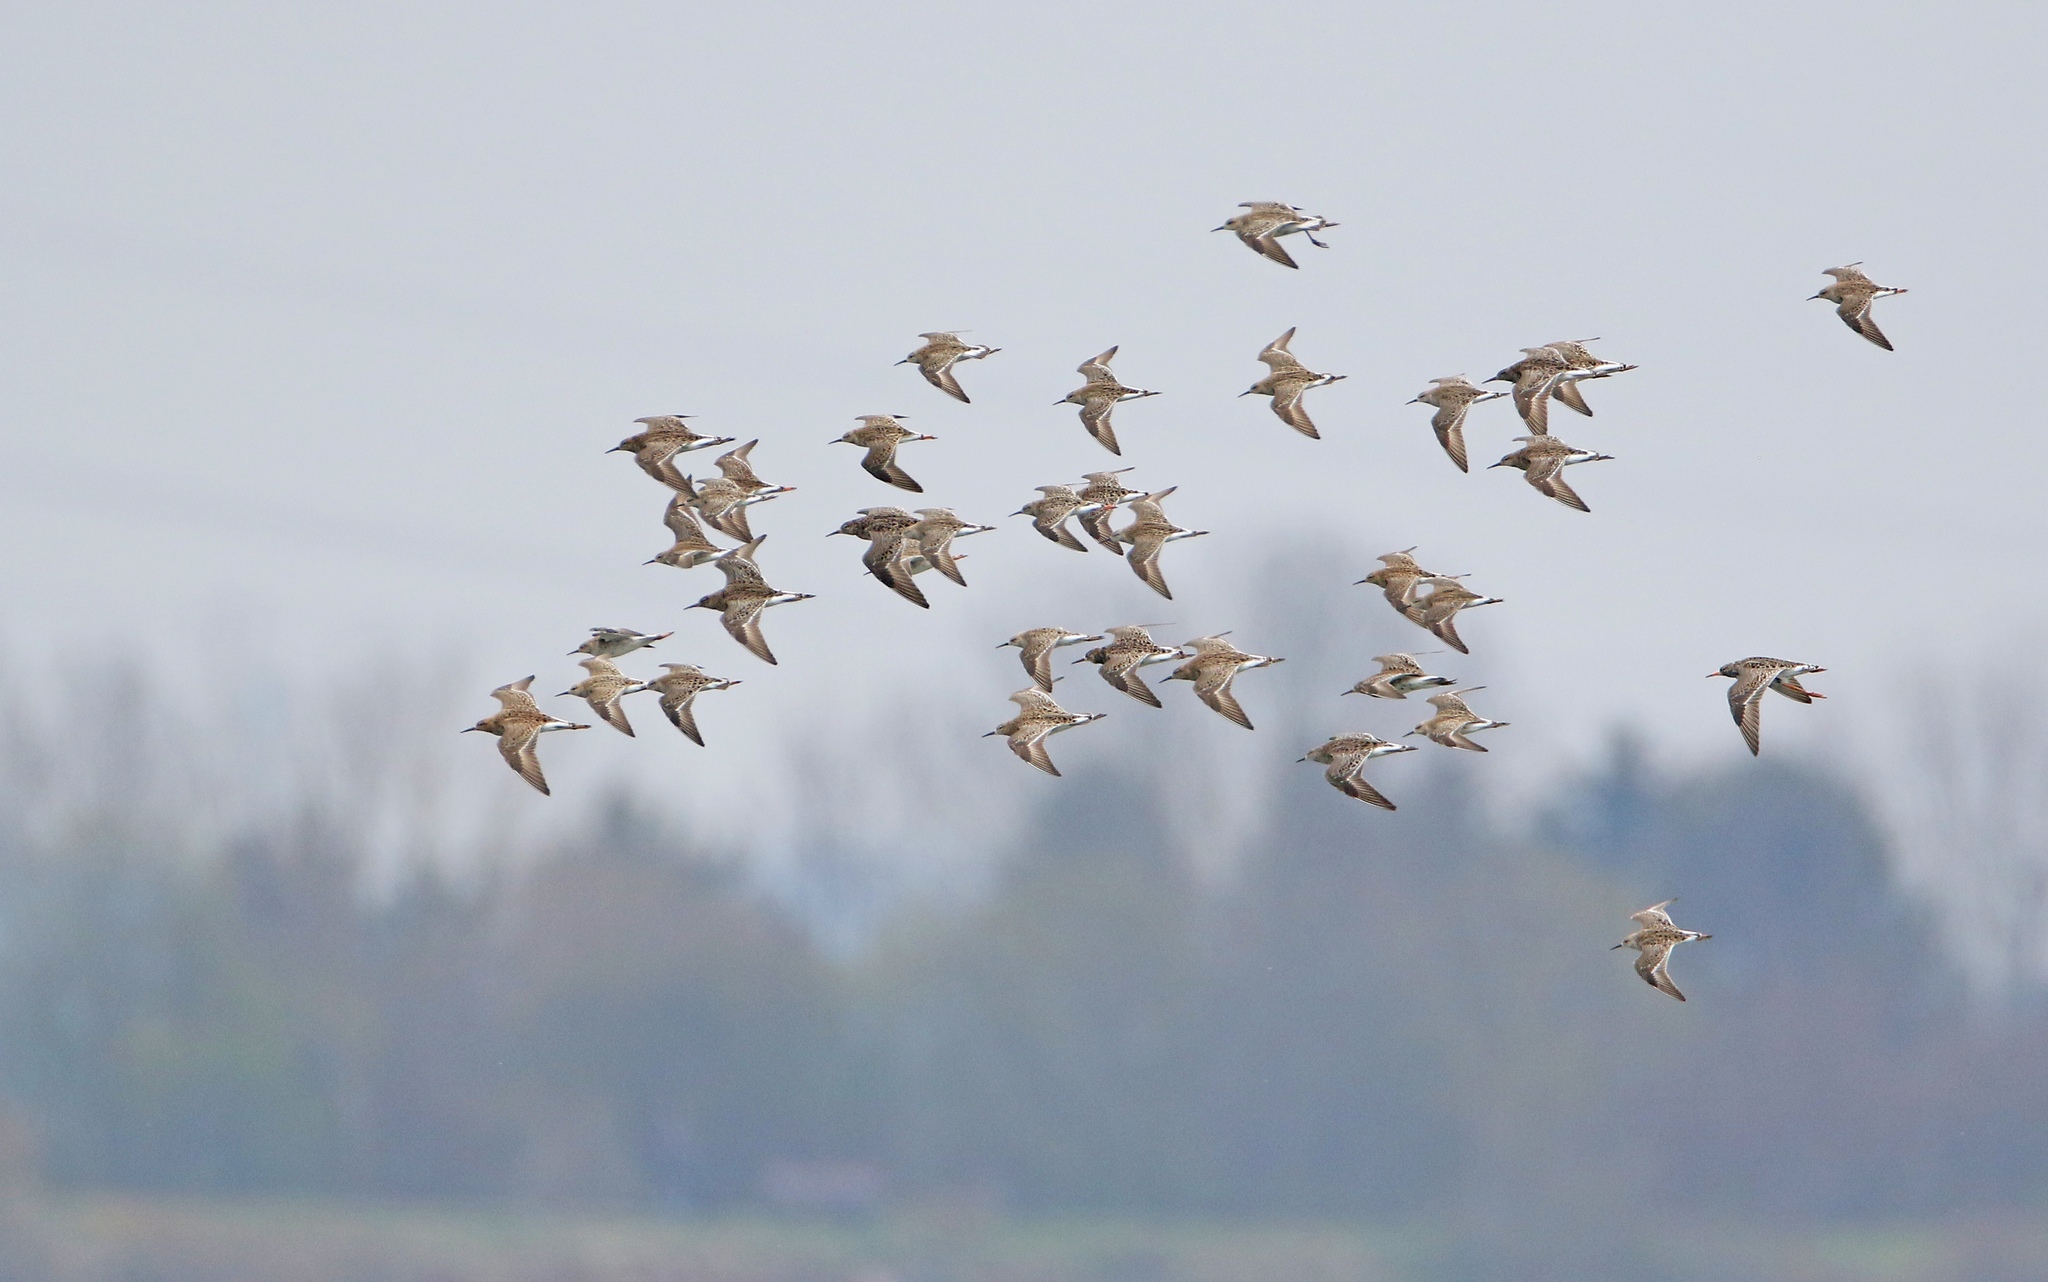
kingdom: Animalia
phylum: Chordata
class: Aves
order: Charadriiformes
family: Scolopacidae
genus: Calidris
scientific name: Calidris pugnax
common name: Ruff
